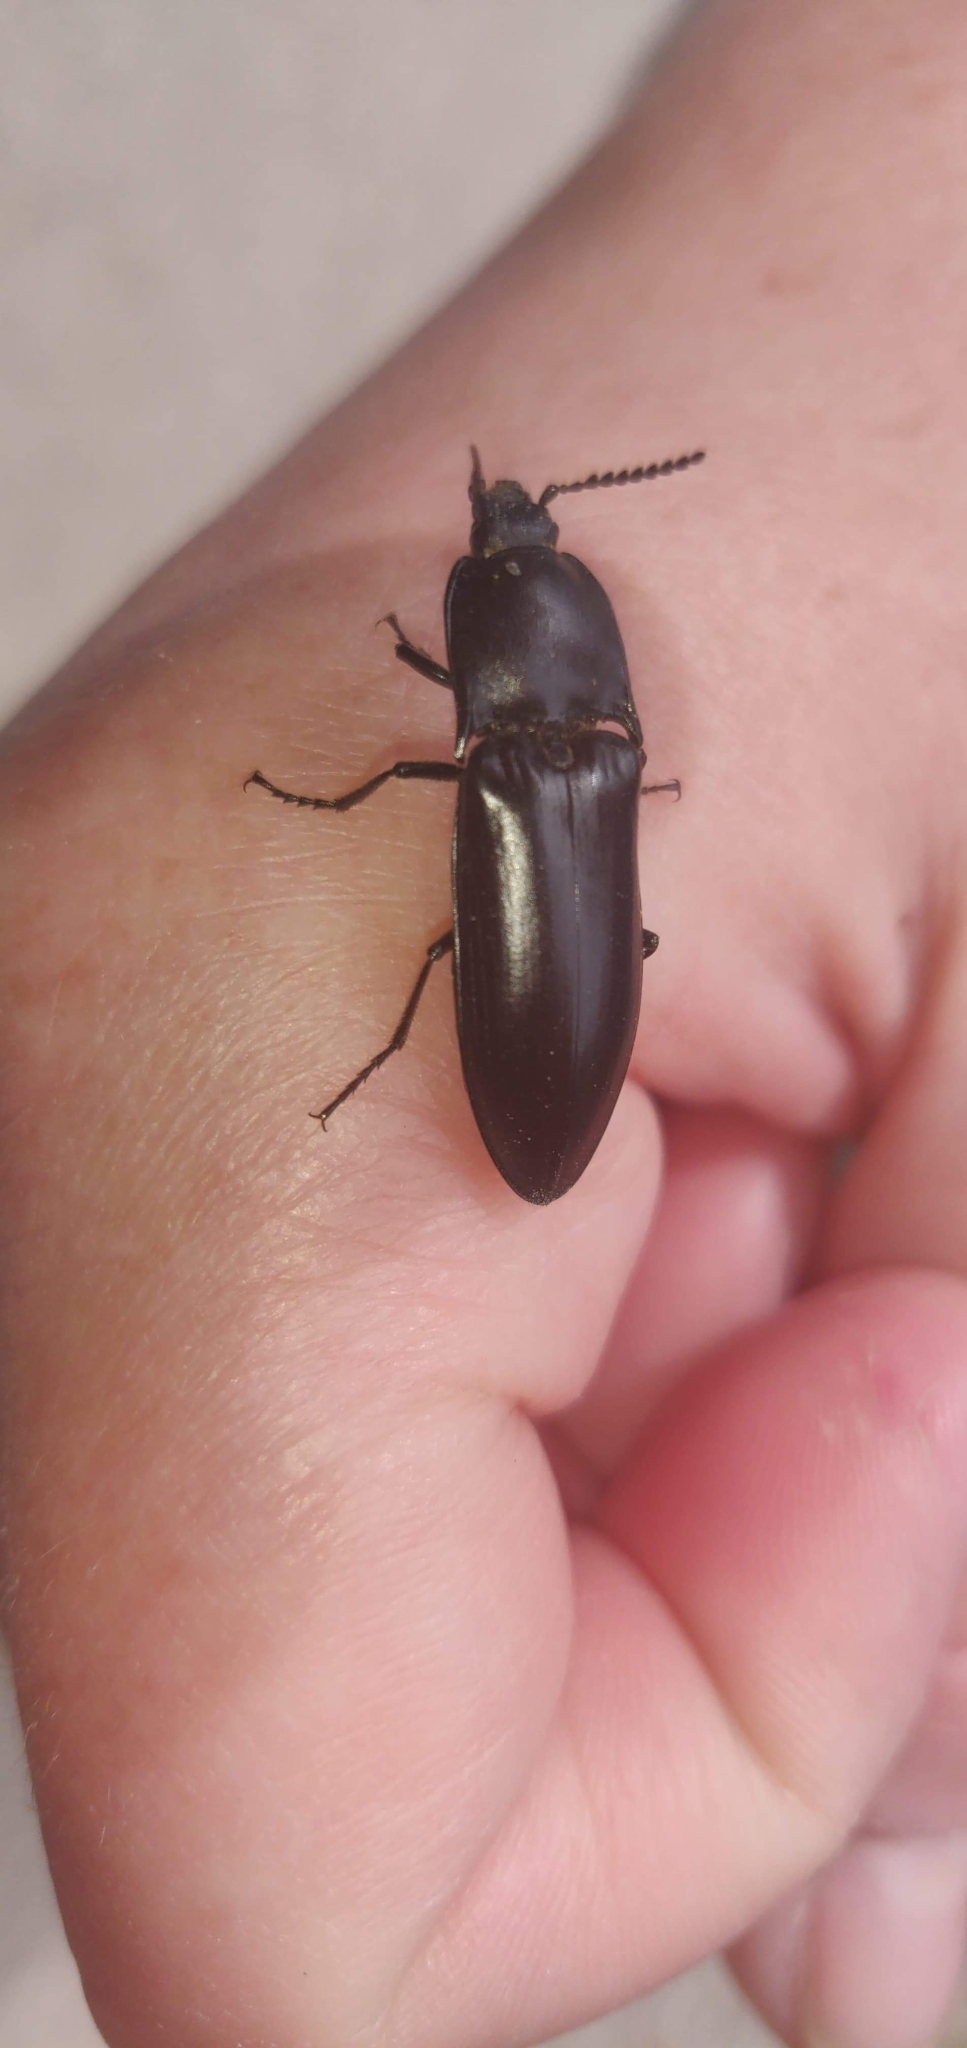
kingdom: Animalia
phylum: Arthropoda
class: Insecta
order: Coleoptera
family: Elateridae
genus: Melanactes
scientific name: Melanactes
